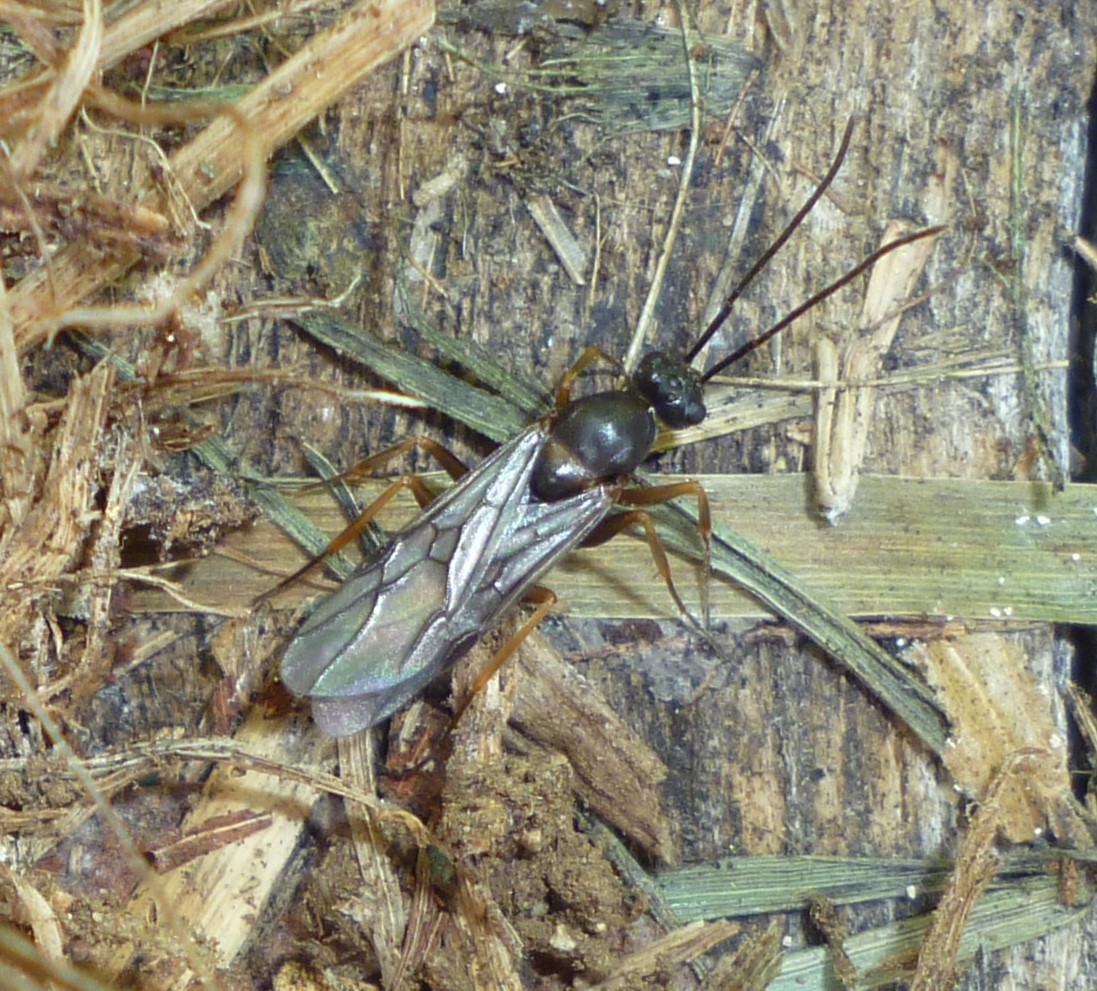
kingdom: Animalia
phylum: Arthropoda
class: Insecta
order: Hymenoptera
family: Formicidae
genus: Formica
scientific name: Formica
